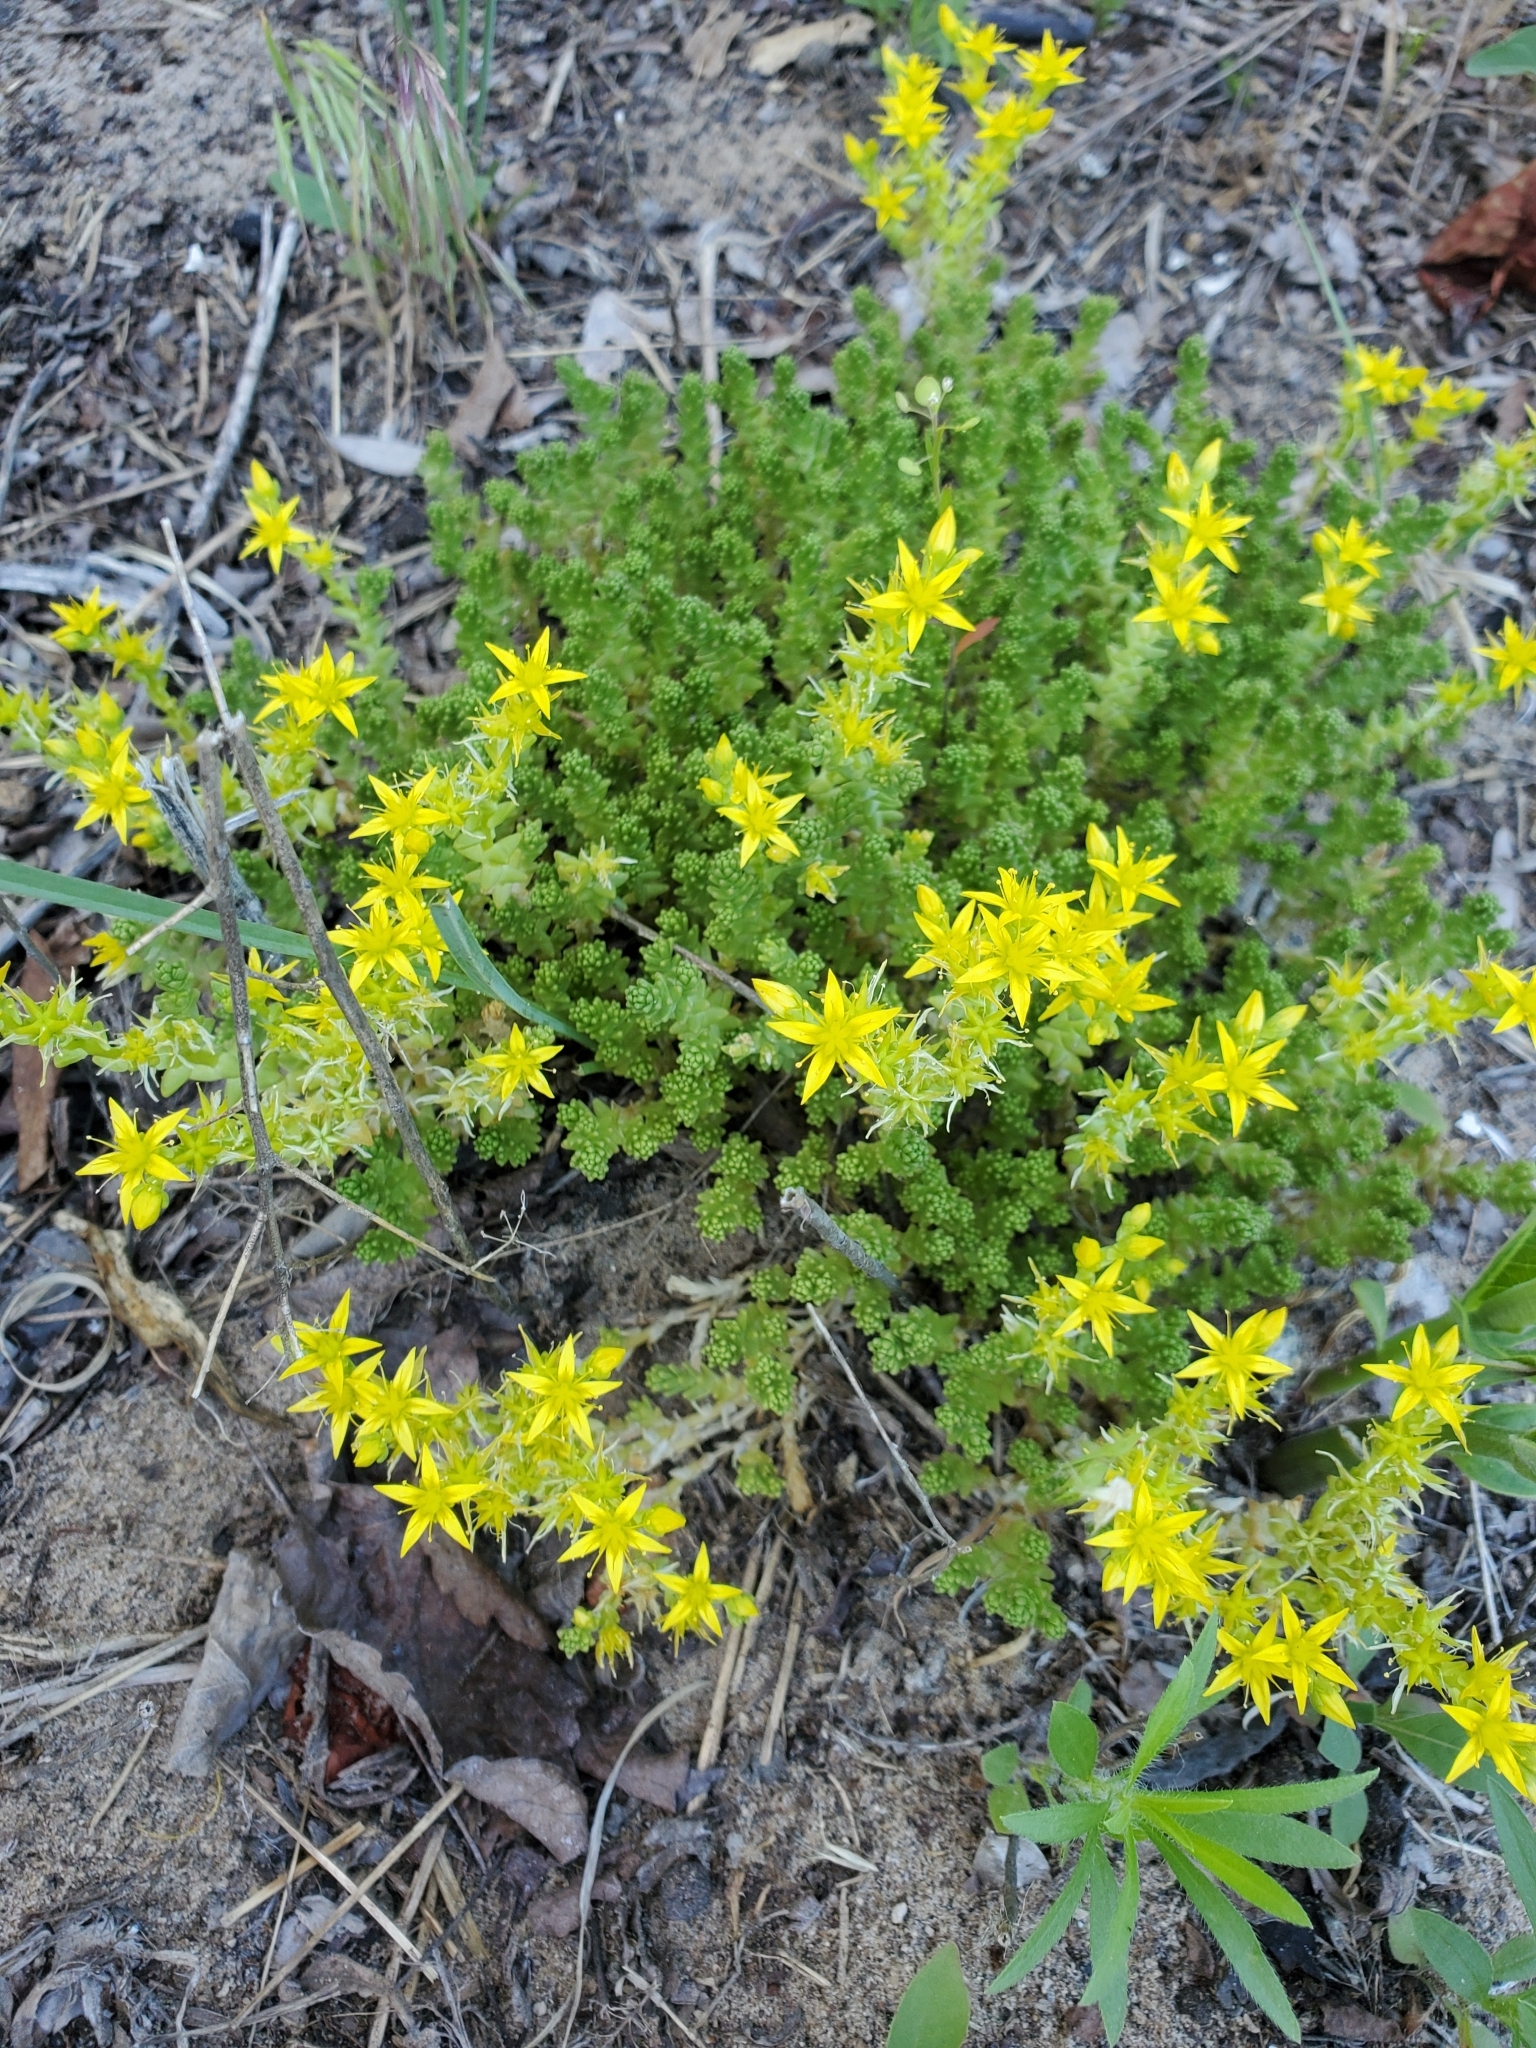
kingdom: Plantae
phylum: Tracheophyta
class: Magnoliopsida
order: Saxifragales
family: Crassulaceae
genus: Sedum
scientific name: Sedum acre
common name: Biting stonecrop
